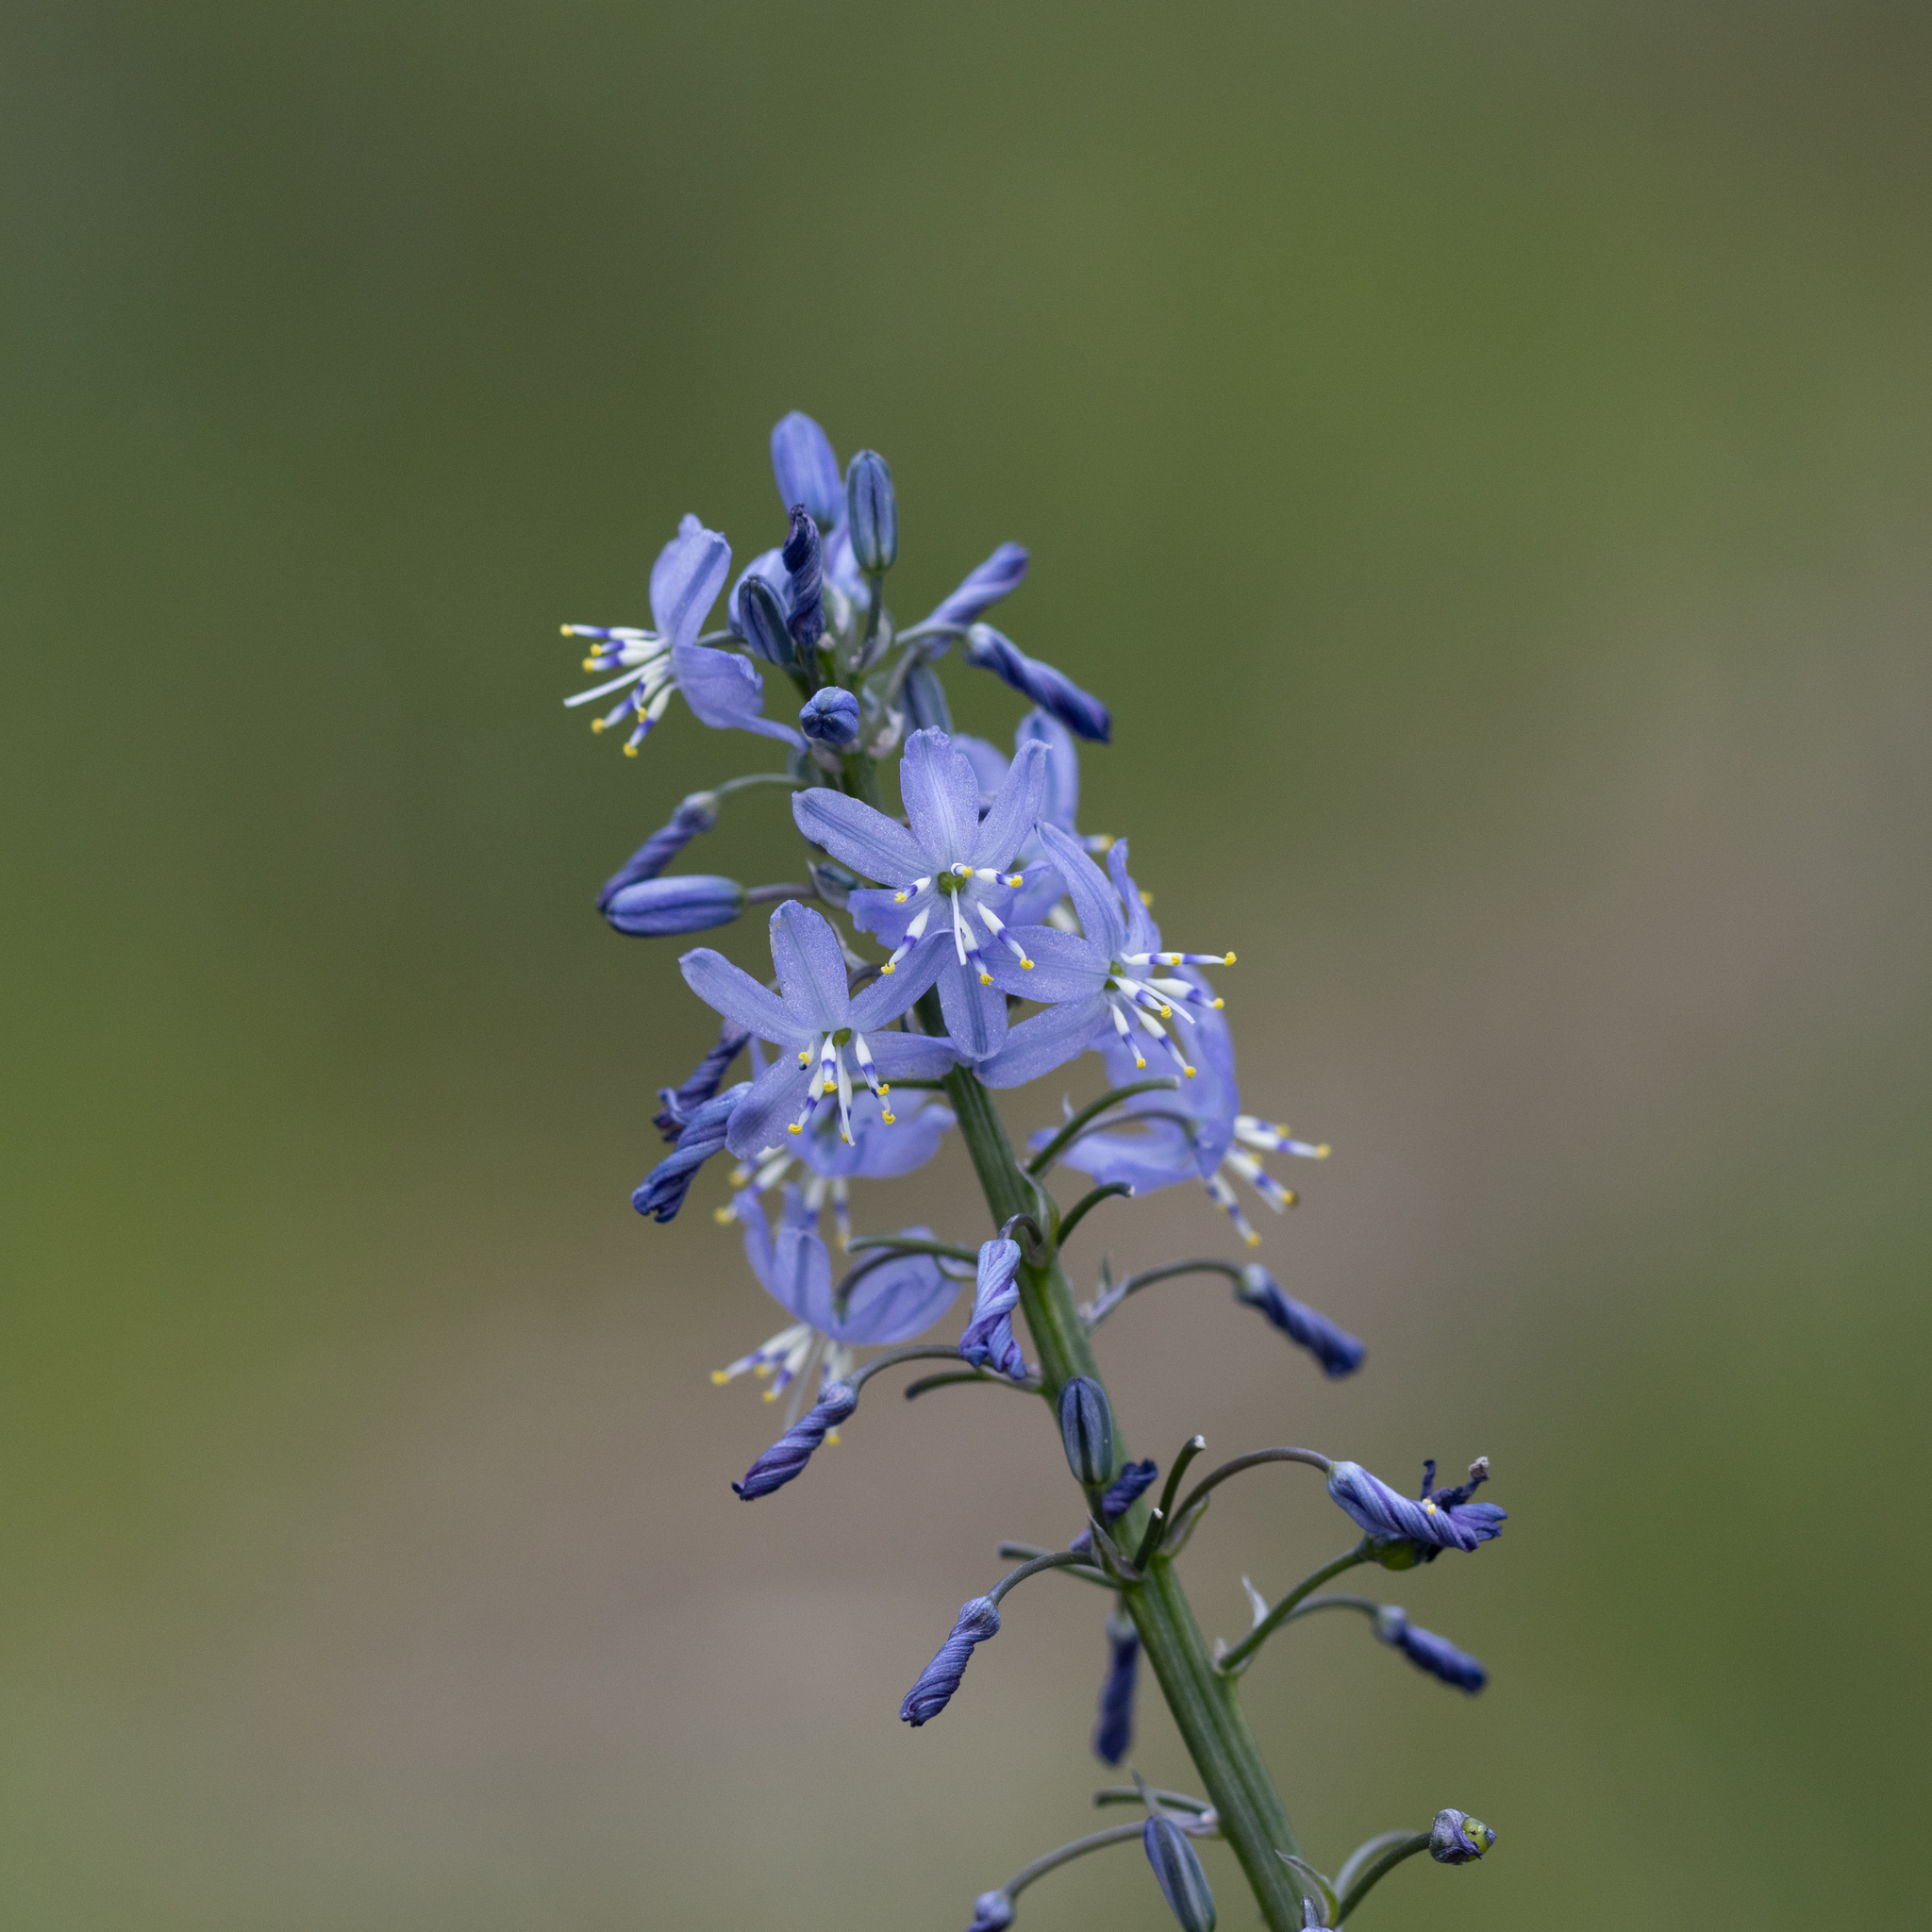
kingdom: Plantae
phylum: Tracheophyta
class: Liliopsida
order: Asparagales
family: Asphodelaceae
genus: Caesia
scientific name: Caesia calliantha
